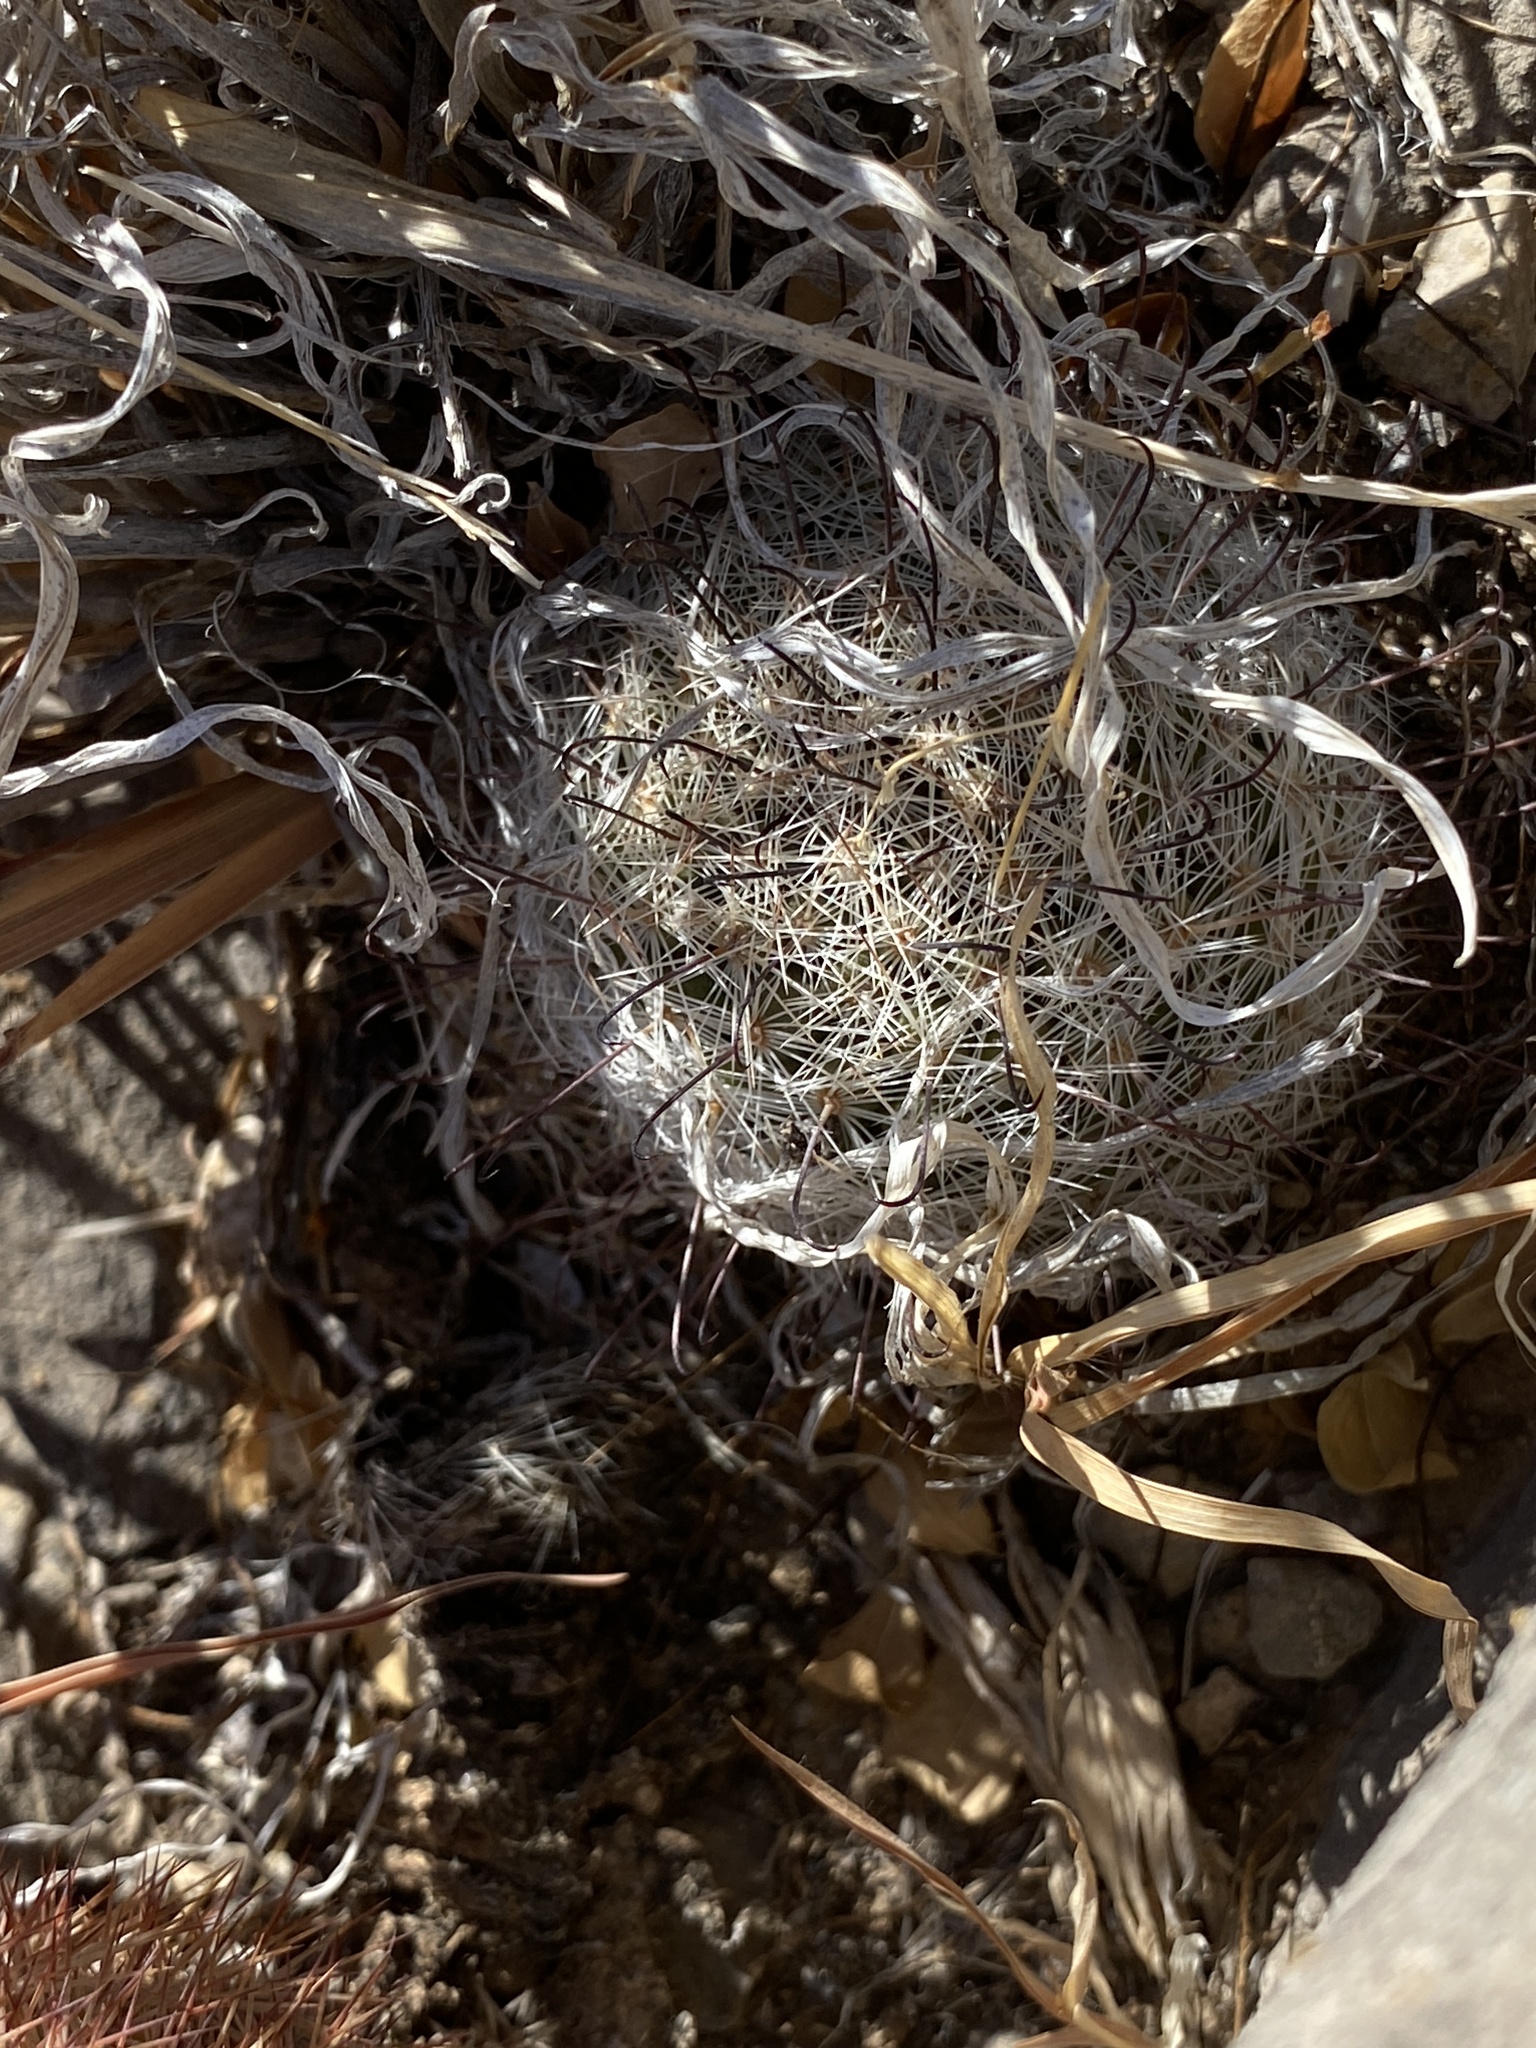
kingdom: Plantae
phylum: Tracheophyta
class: Magnoliopsida
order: Caryophyllales
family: Cactaceae
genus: Cochemiea
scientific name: Cochemiea grahamii
